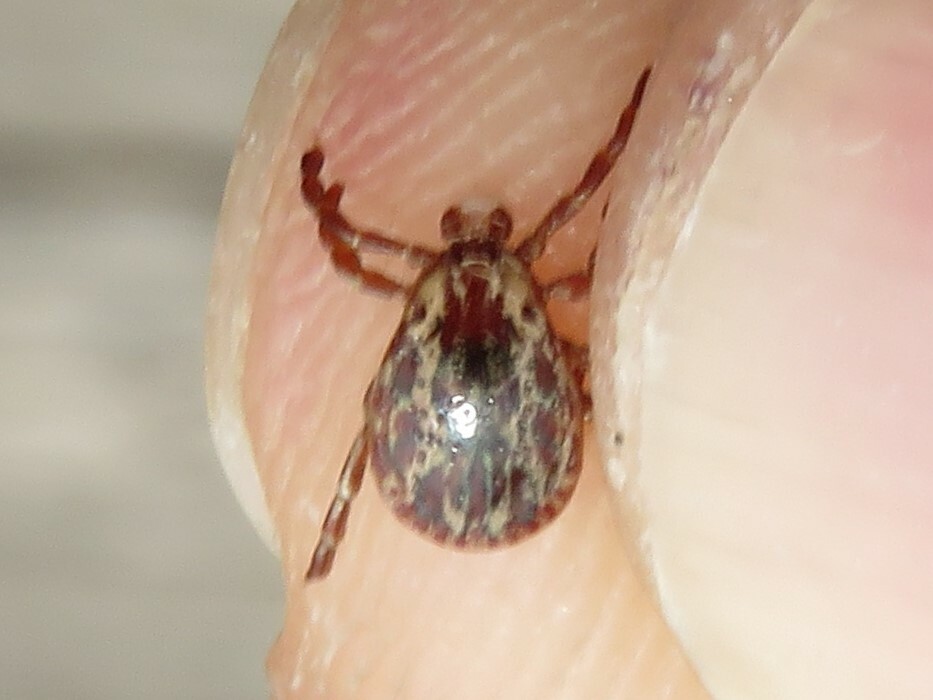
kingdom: Animalia
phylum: Arthropoda
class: Arachnida
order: Ixodida
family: Ixodidae
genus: Dermacentor
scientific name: Dermacentor variabilis
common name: American dog tick
